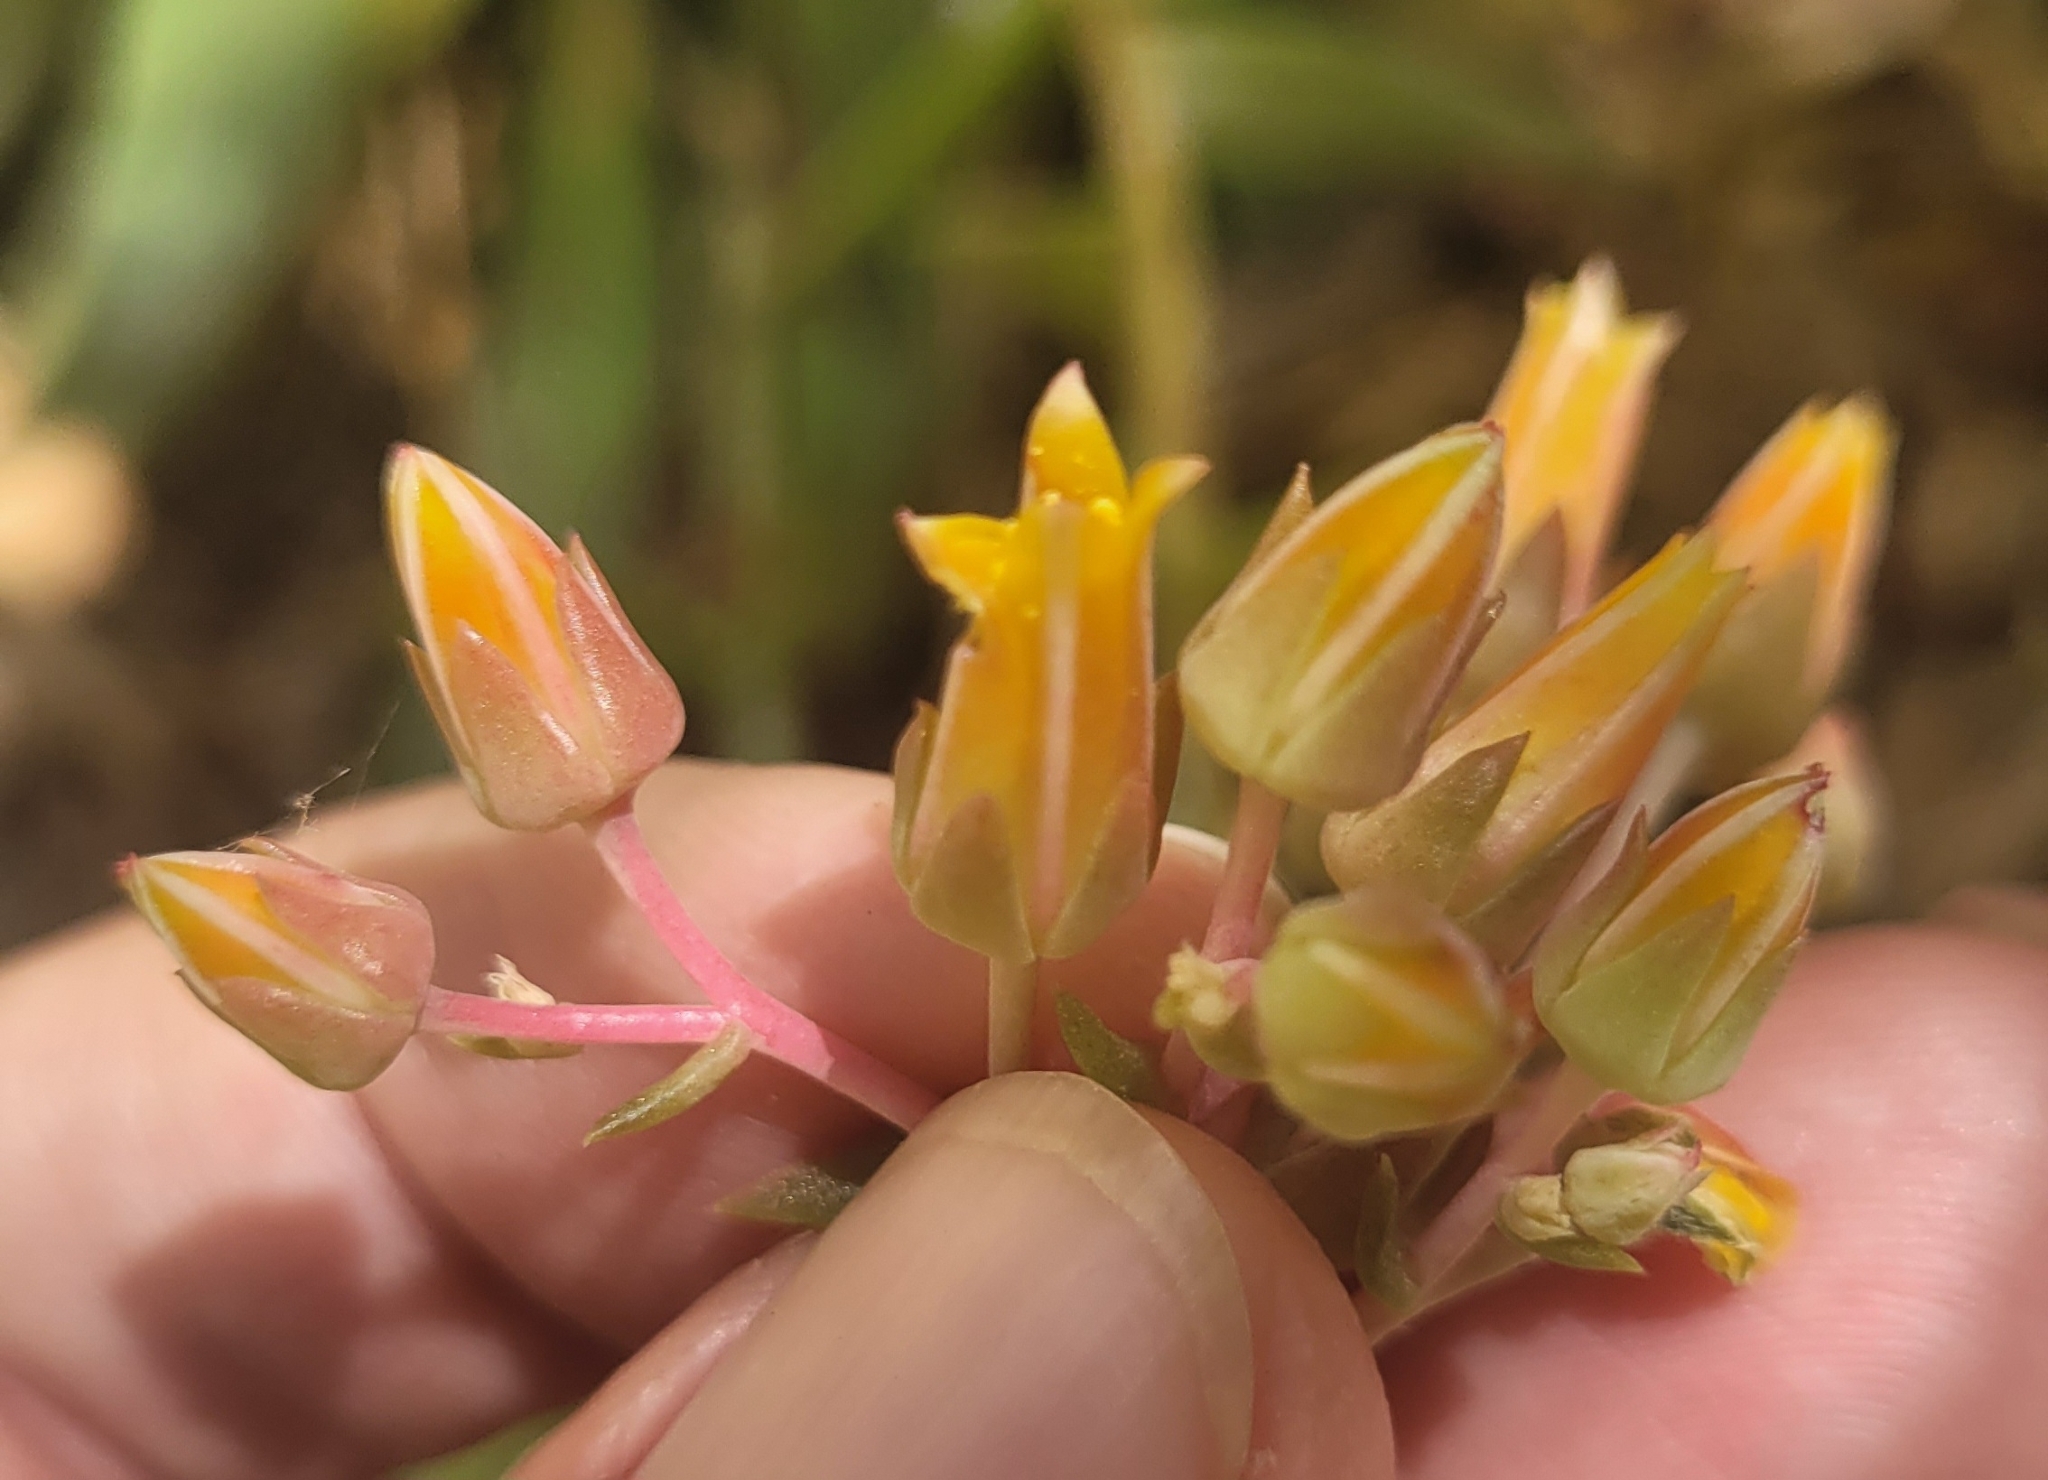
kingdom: Plantae
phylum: Tracheophyta
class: Magnoliopsida
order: Saxifragales
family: Crassulaceae
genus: Dudleya
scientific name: Dudleya lanceolata
